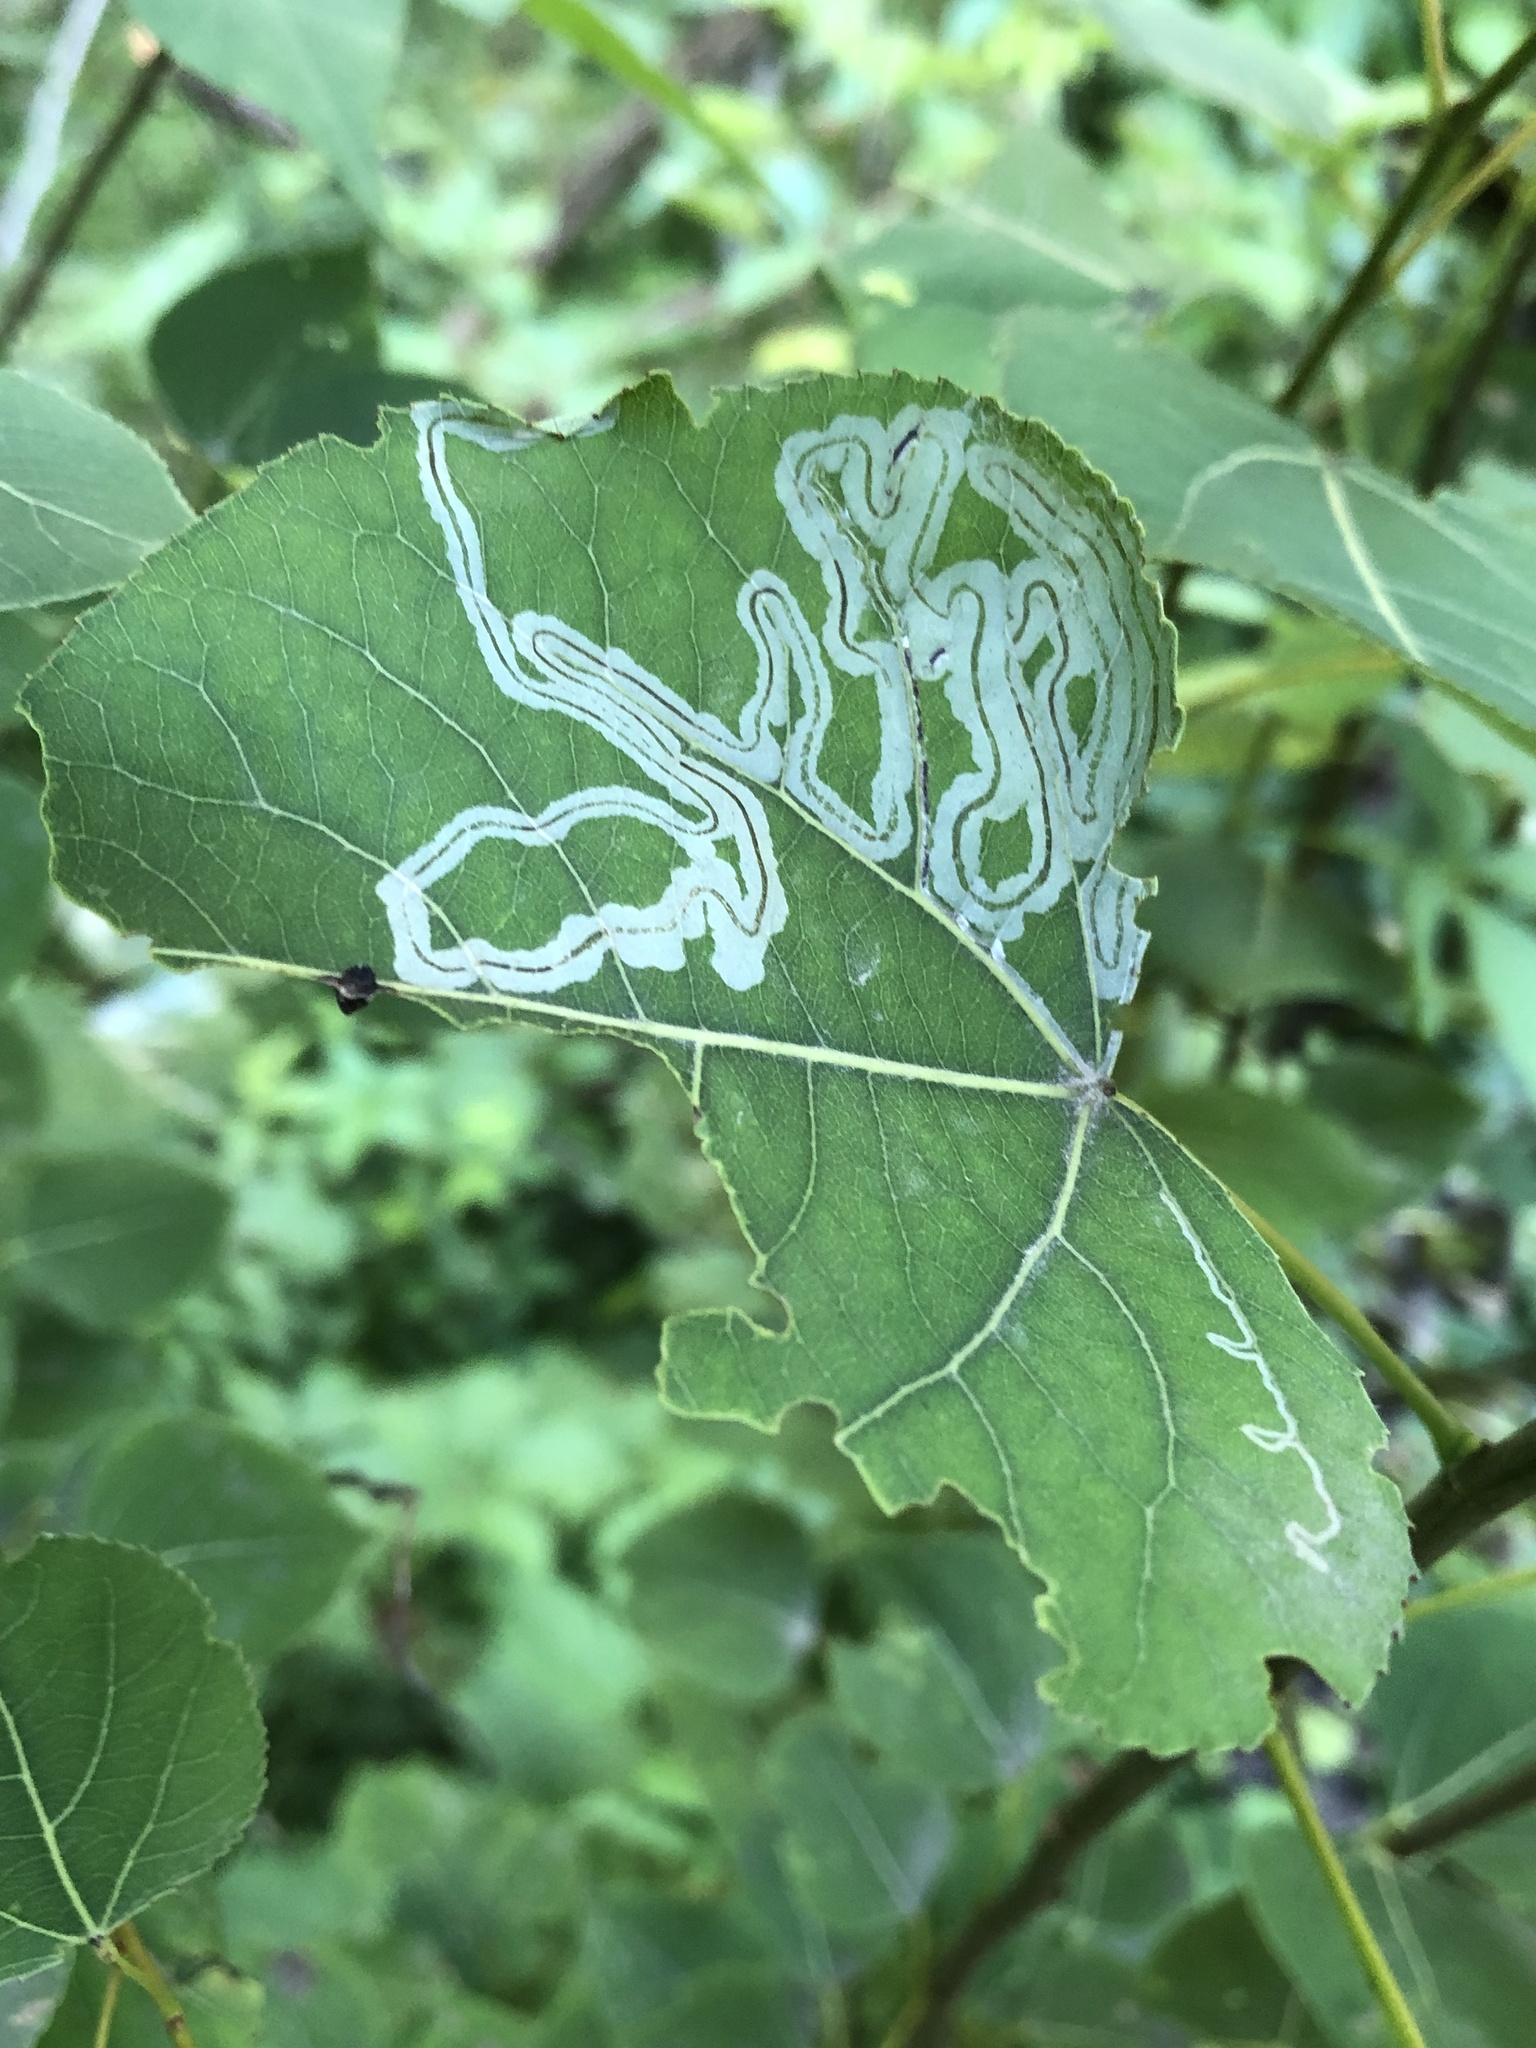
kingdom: Animalia
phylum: Arthropoda
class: Insecta
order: Lepidoptera
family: Gracillariidae
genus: Phyllocnistis
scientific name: Phyllocnistis populiella
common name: Aspen serpentine leafminer moth
